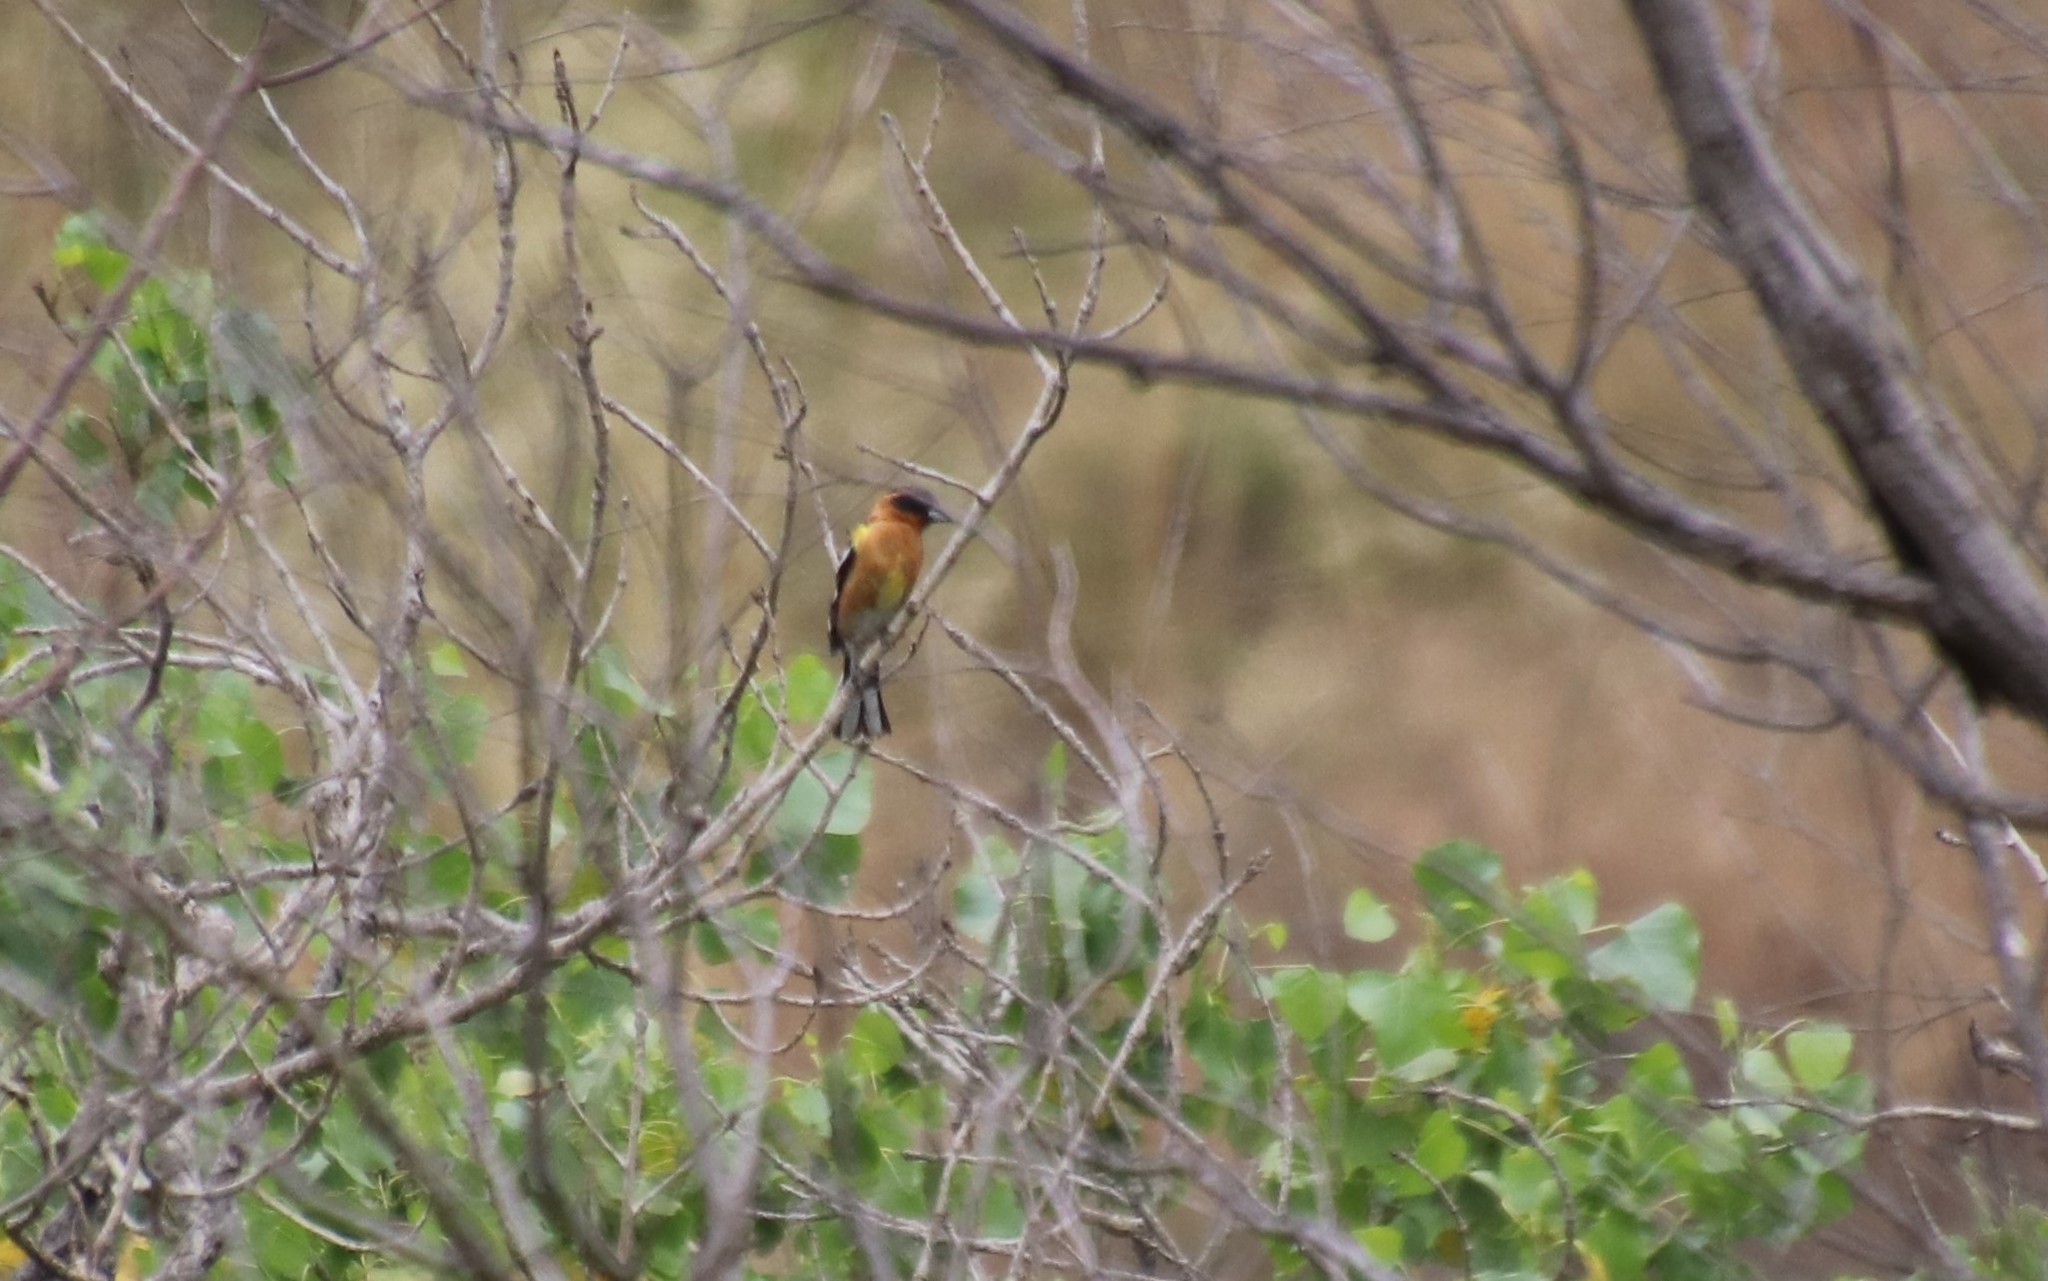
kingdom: Animalia
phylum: Chordata
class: Aves
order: Passeriformes
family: Cardinalidae
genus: Pheucticus
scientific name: Pheucticus melanocephalus
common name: Black-headed grosbeak
